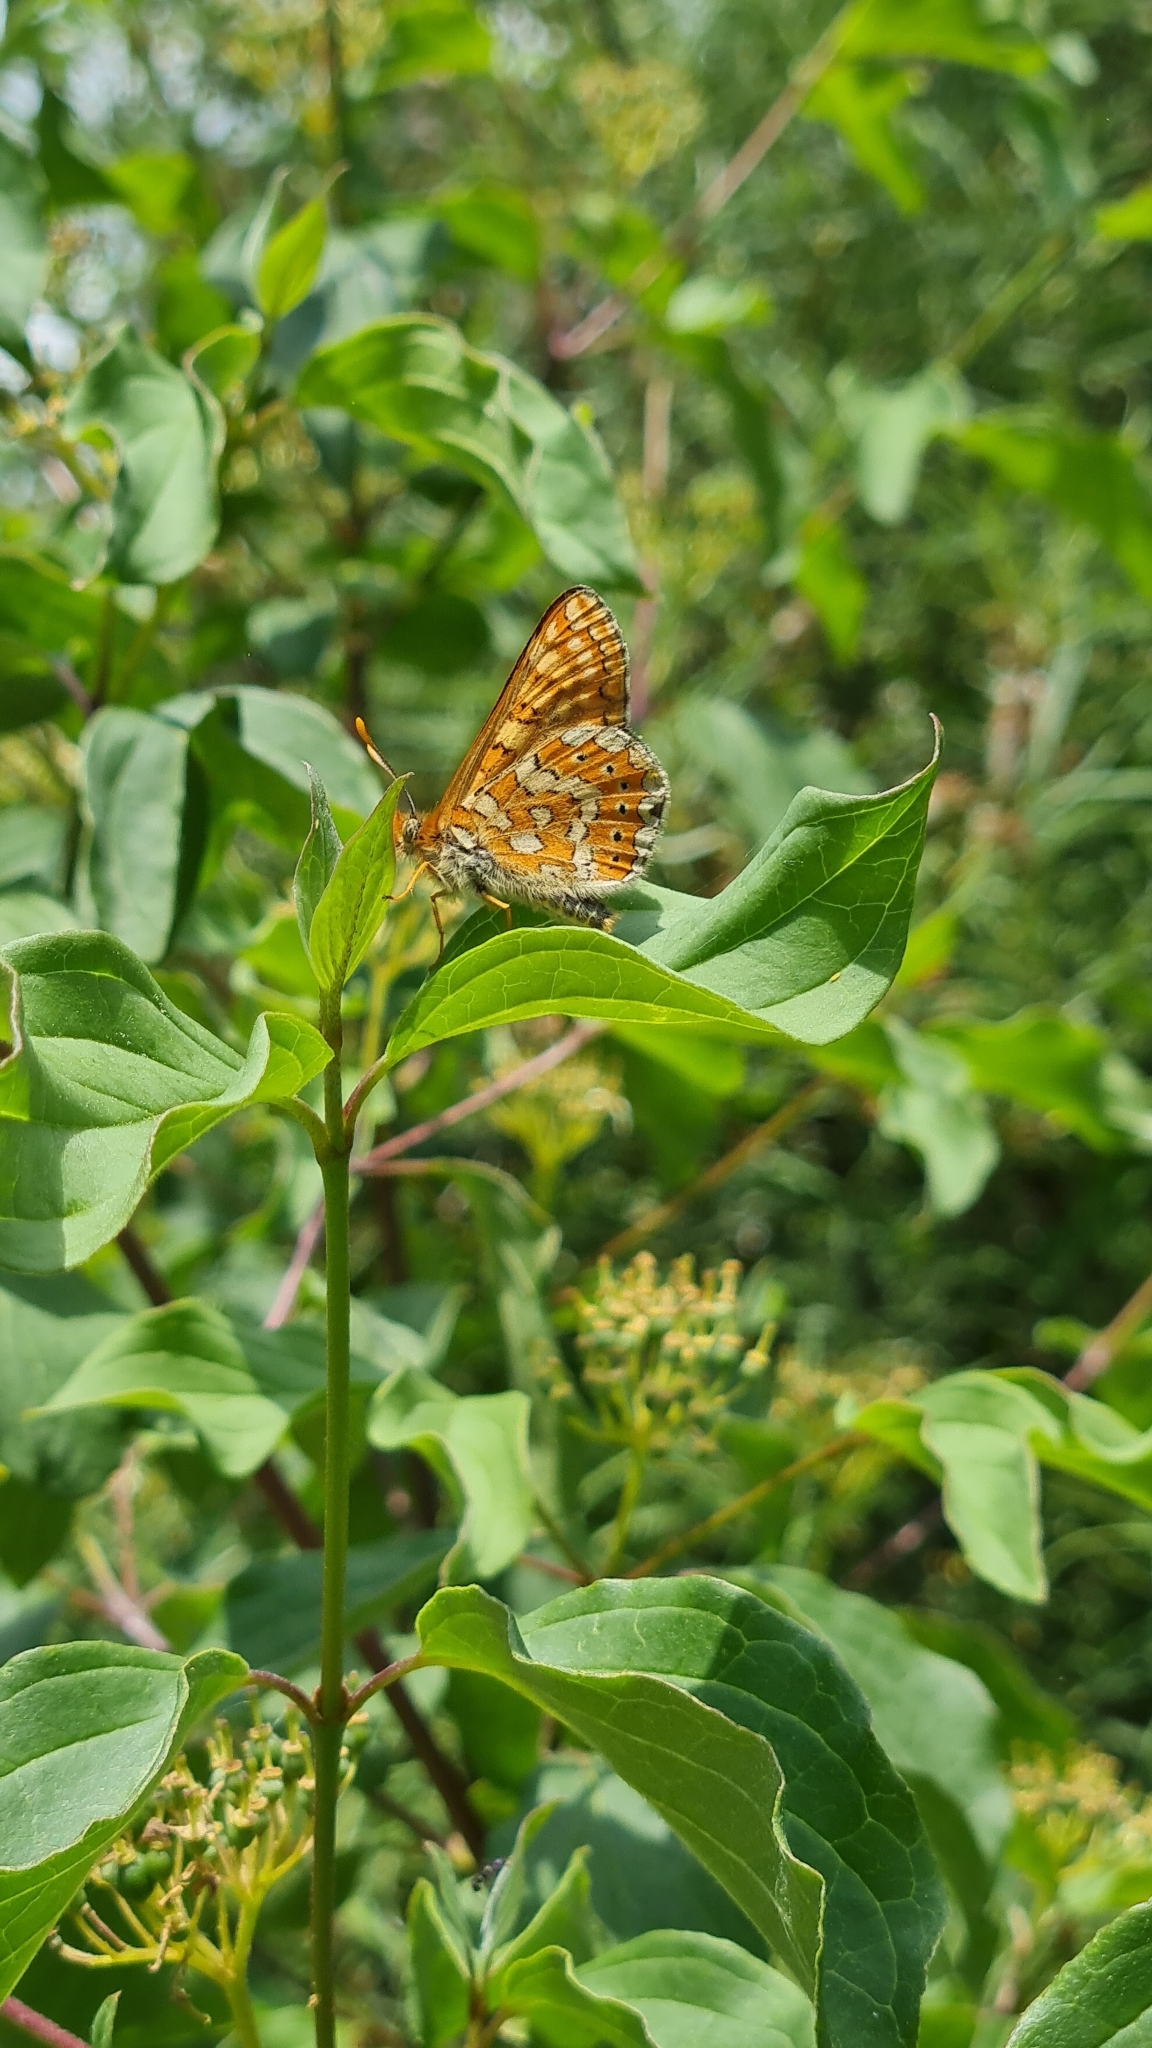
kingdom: Animalia
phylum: Arthropoda
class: Insecta
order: Lepidoptera
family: Nymphalidae
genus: Euphydryas
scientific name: Euphydryas aurinia
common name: Marsh fritillary
